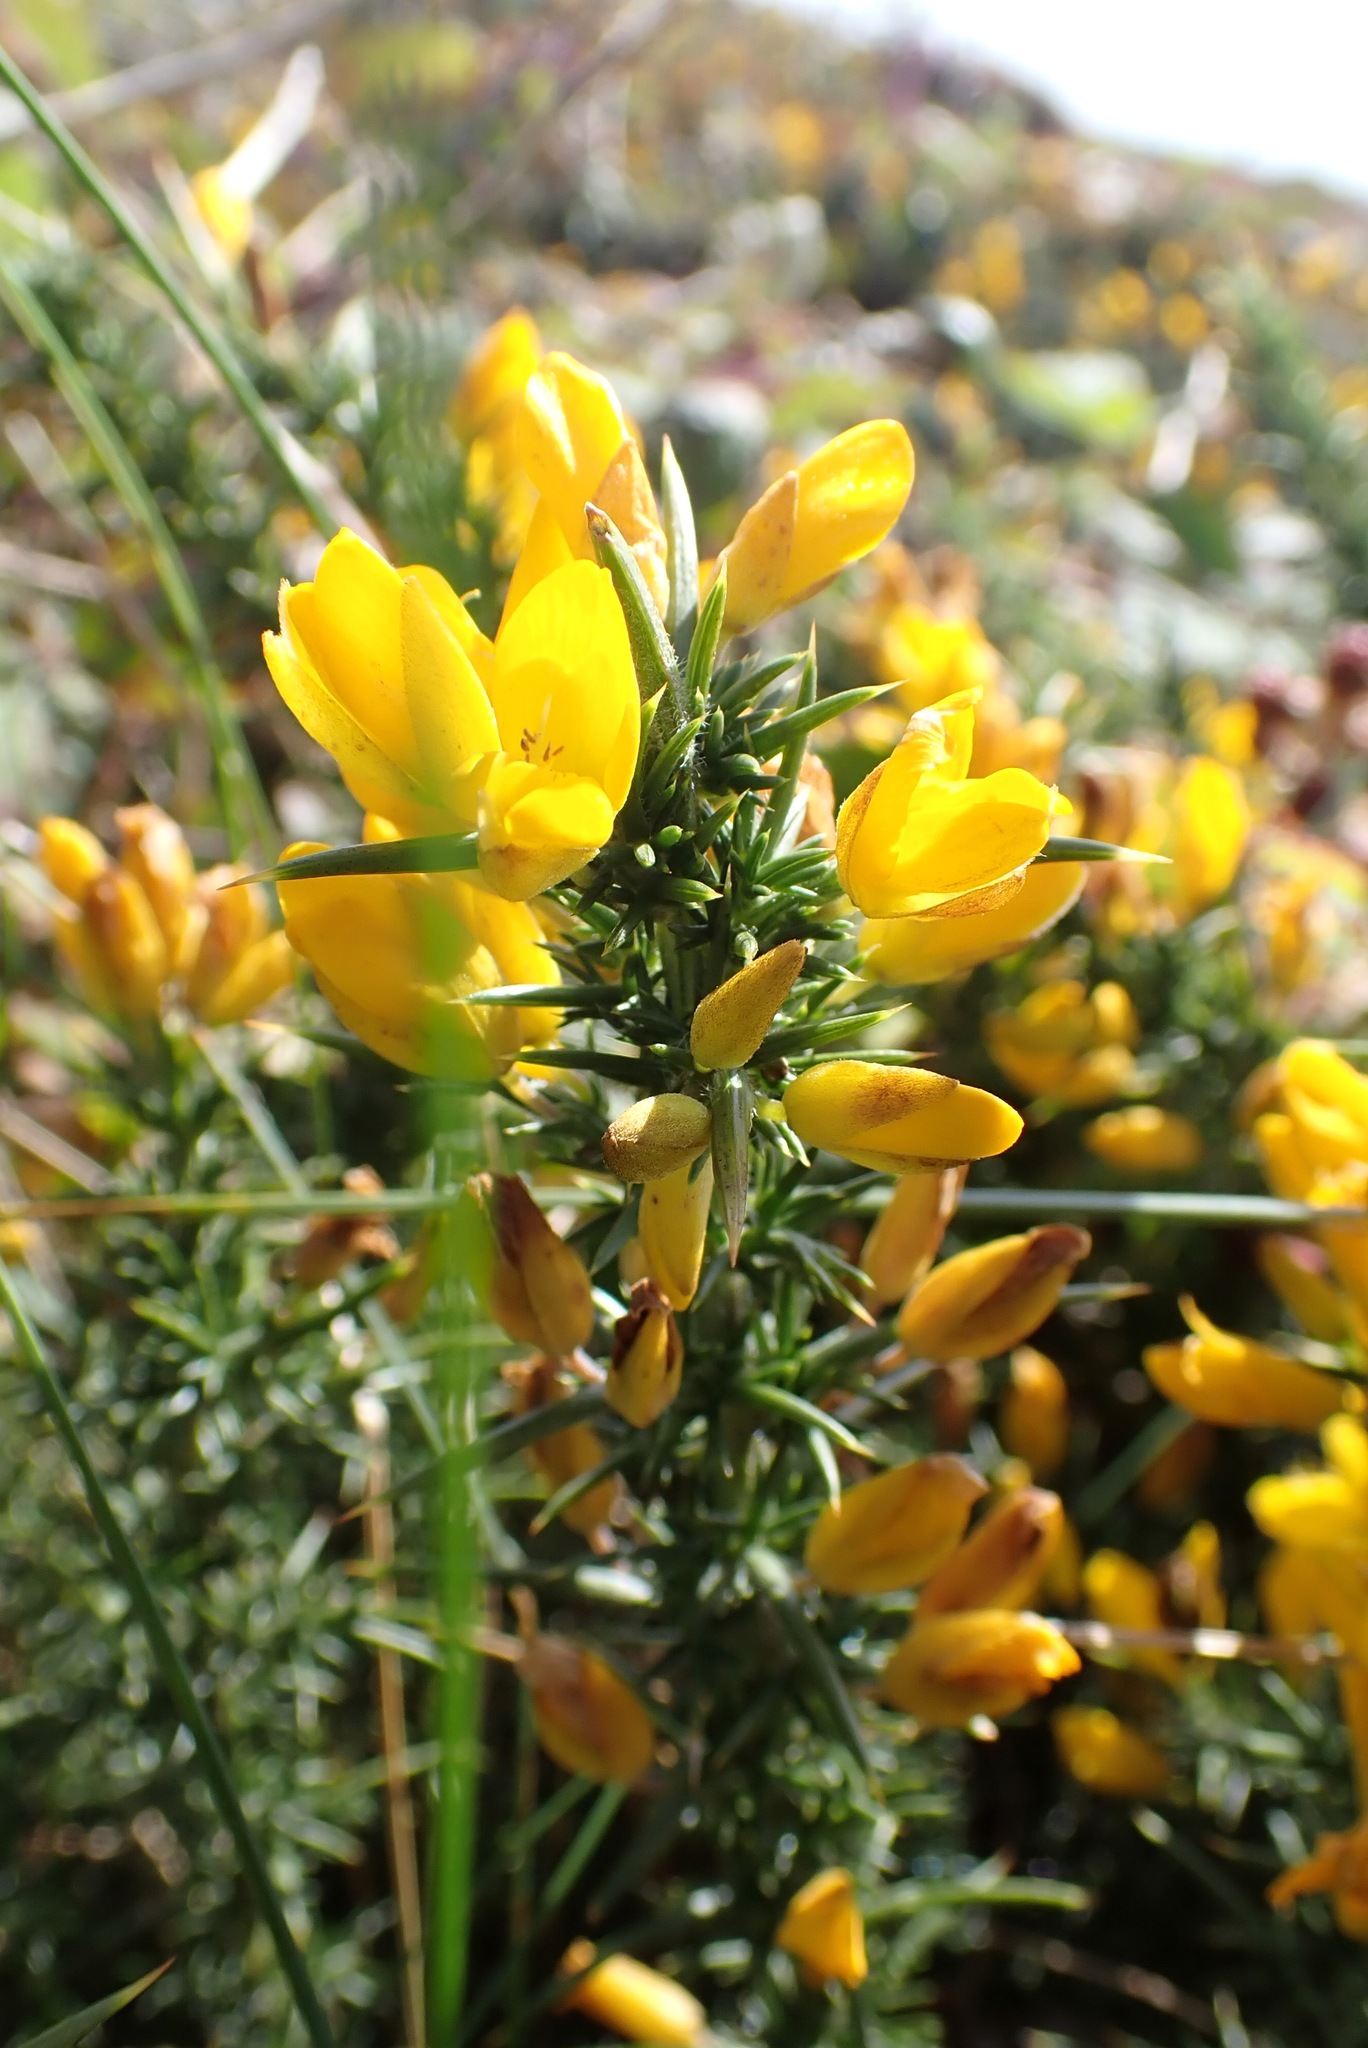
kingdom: Plantae
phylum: Tracheophyta
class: Magnoliopsida
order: Fabales
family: Fabaceae
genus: Ulex
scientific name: Ulex gallii
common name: Western gorse
